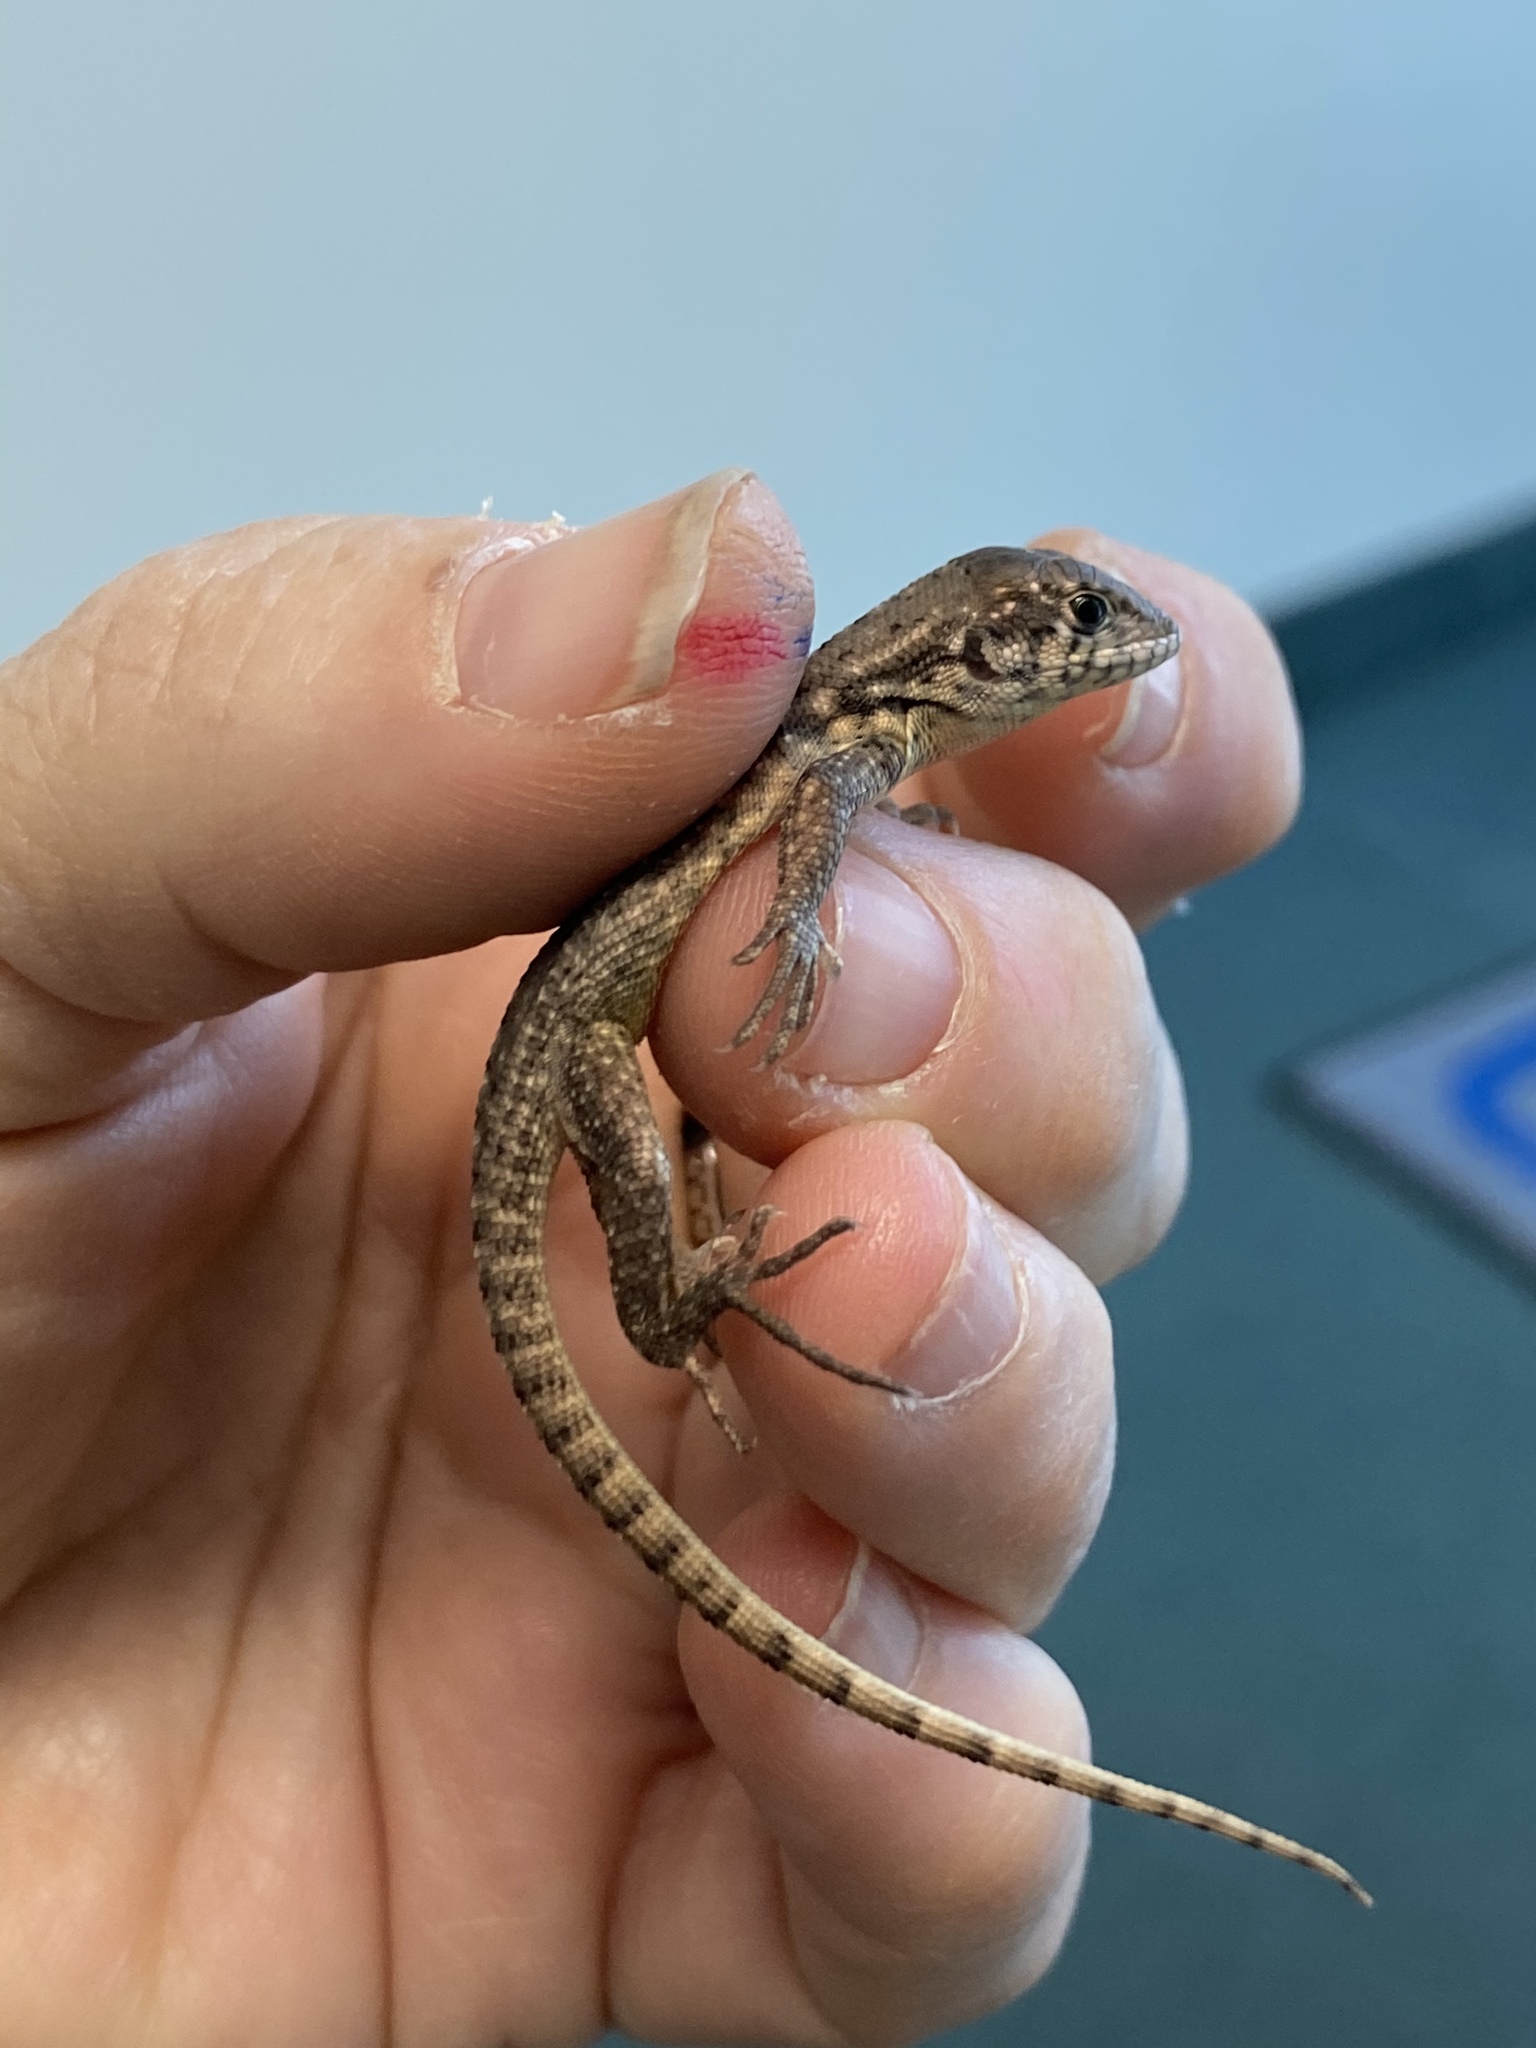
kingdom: Animalia
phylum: Chordata
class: Squamata
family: Leiocephalidae
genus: Leiocephalus
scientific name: Leiocephalus carinatus
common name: Northern curly-tailed lizard
